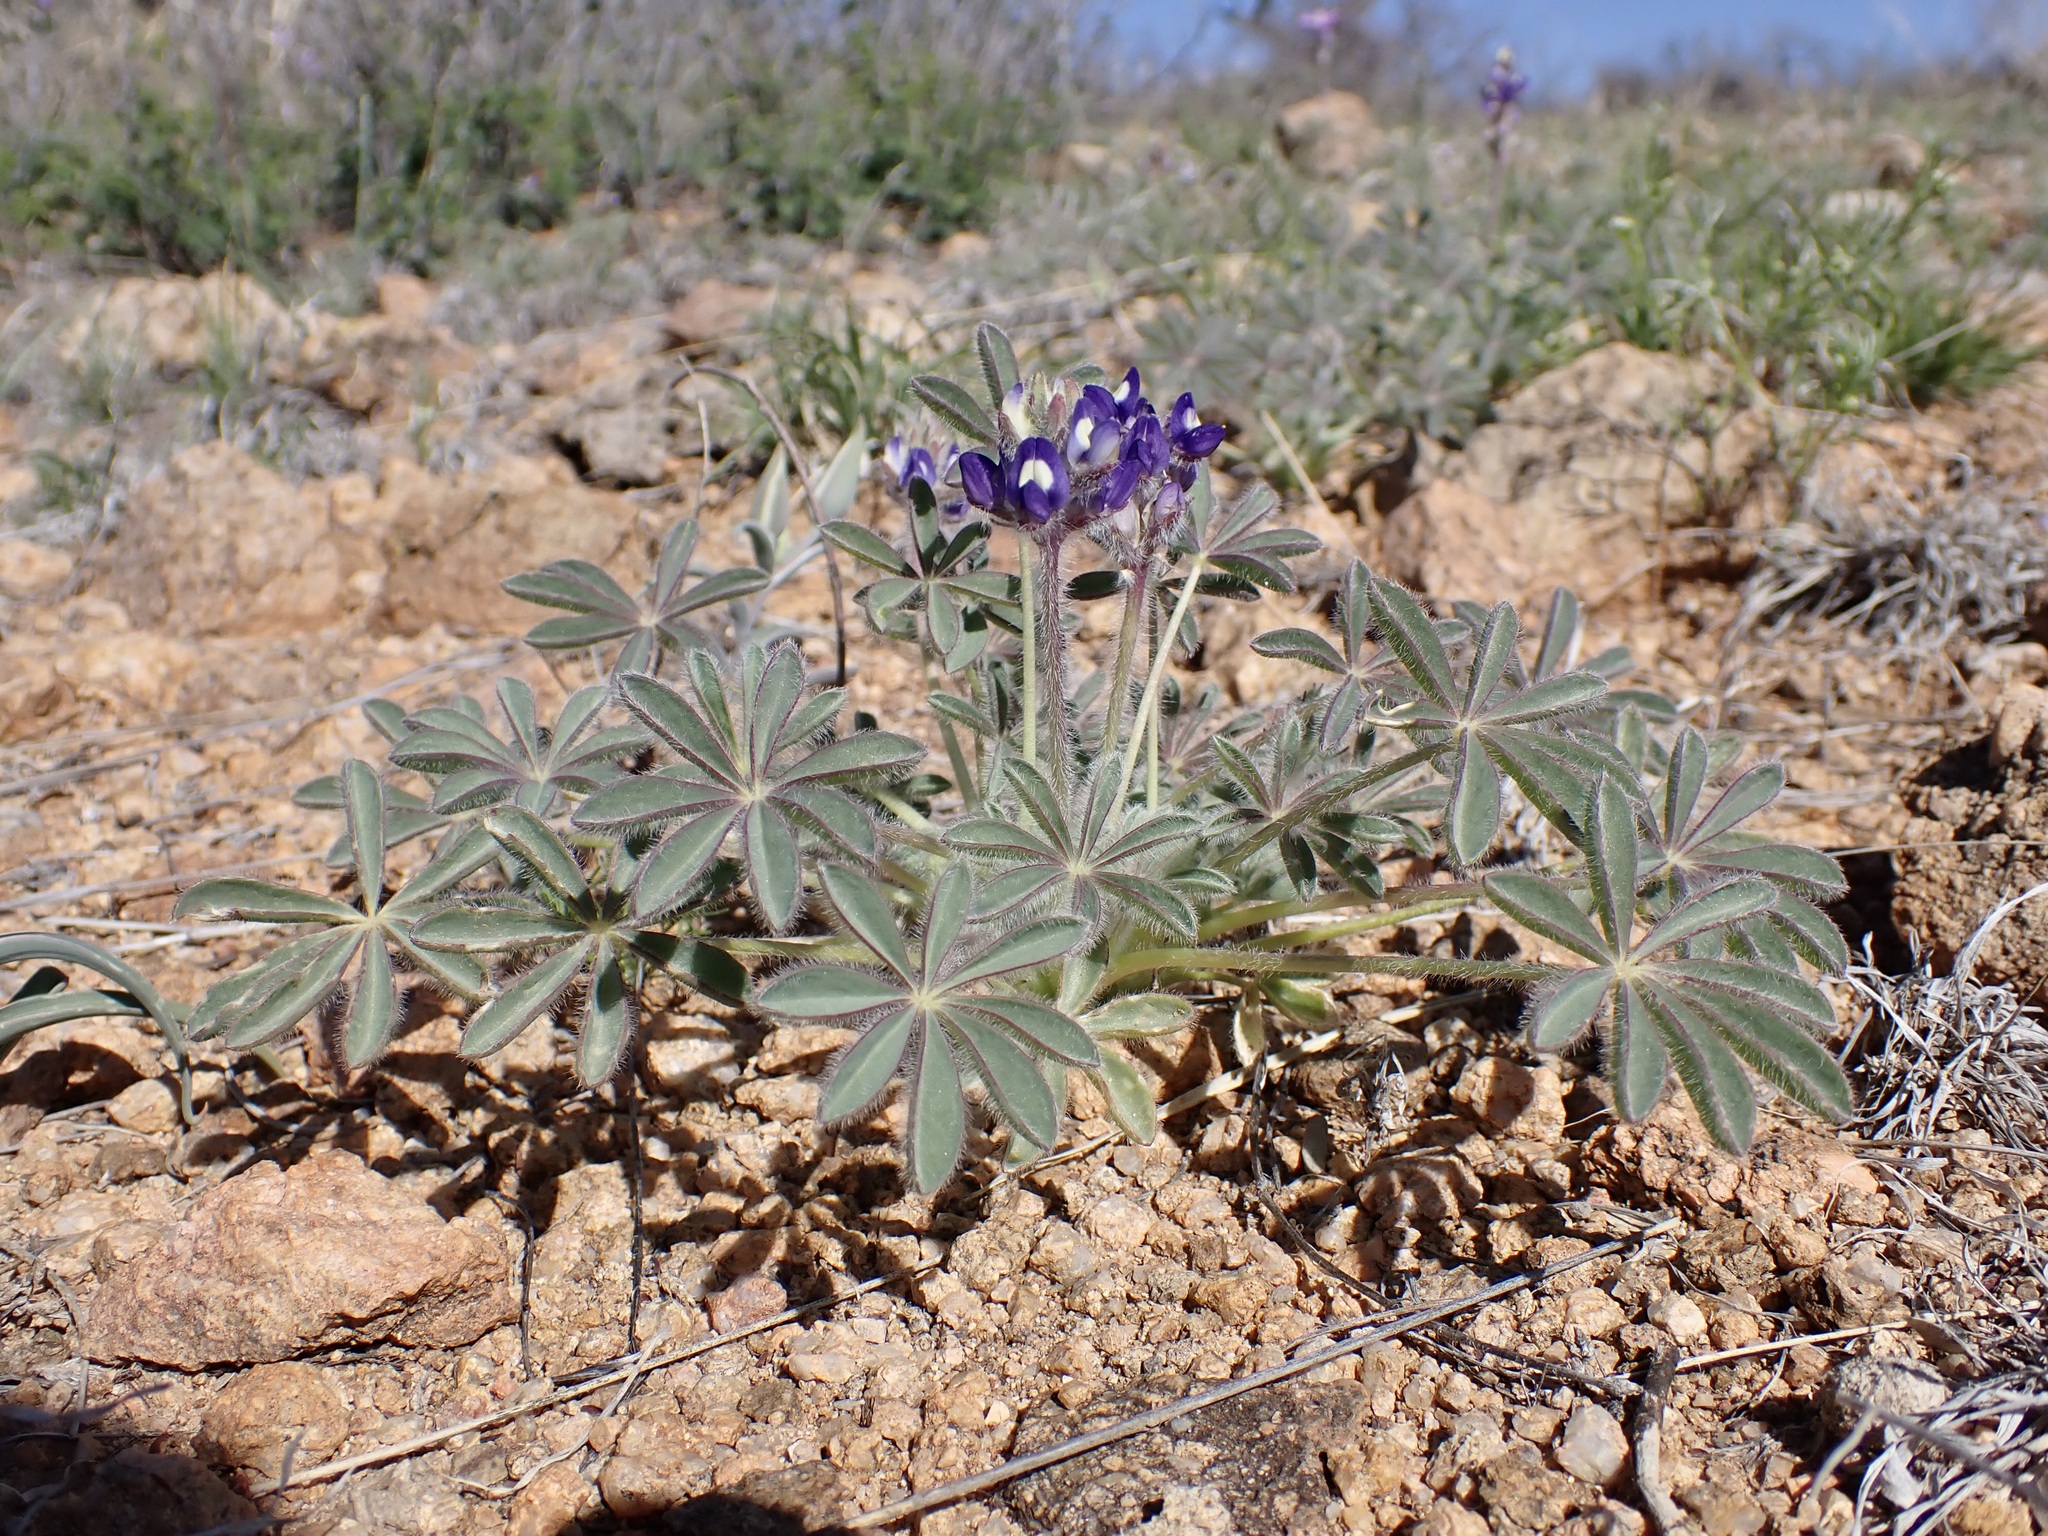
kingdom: Plantae
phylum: Tracheophyta
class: Magnoliopsida
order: Fabales
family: Fabaceae
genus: Lupinus
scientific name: Lupinus brevicaulis
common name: Sand lupine
